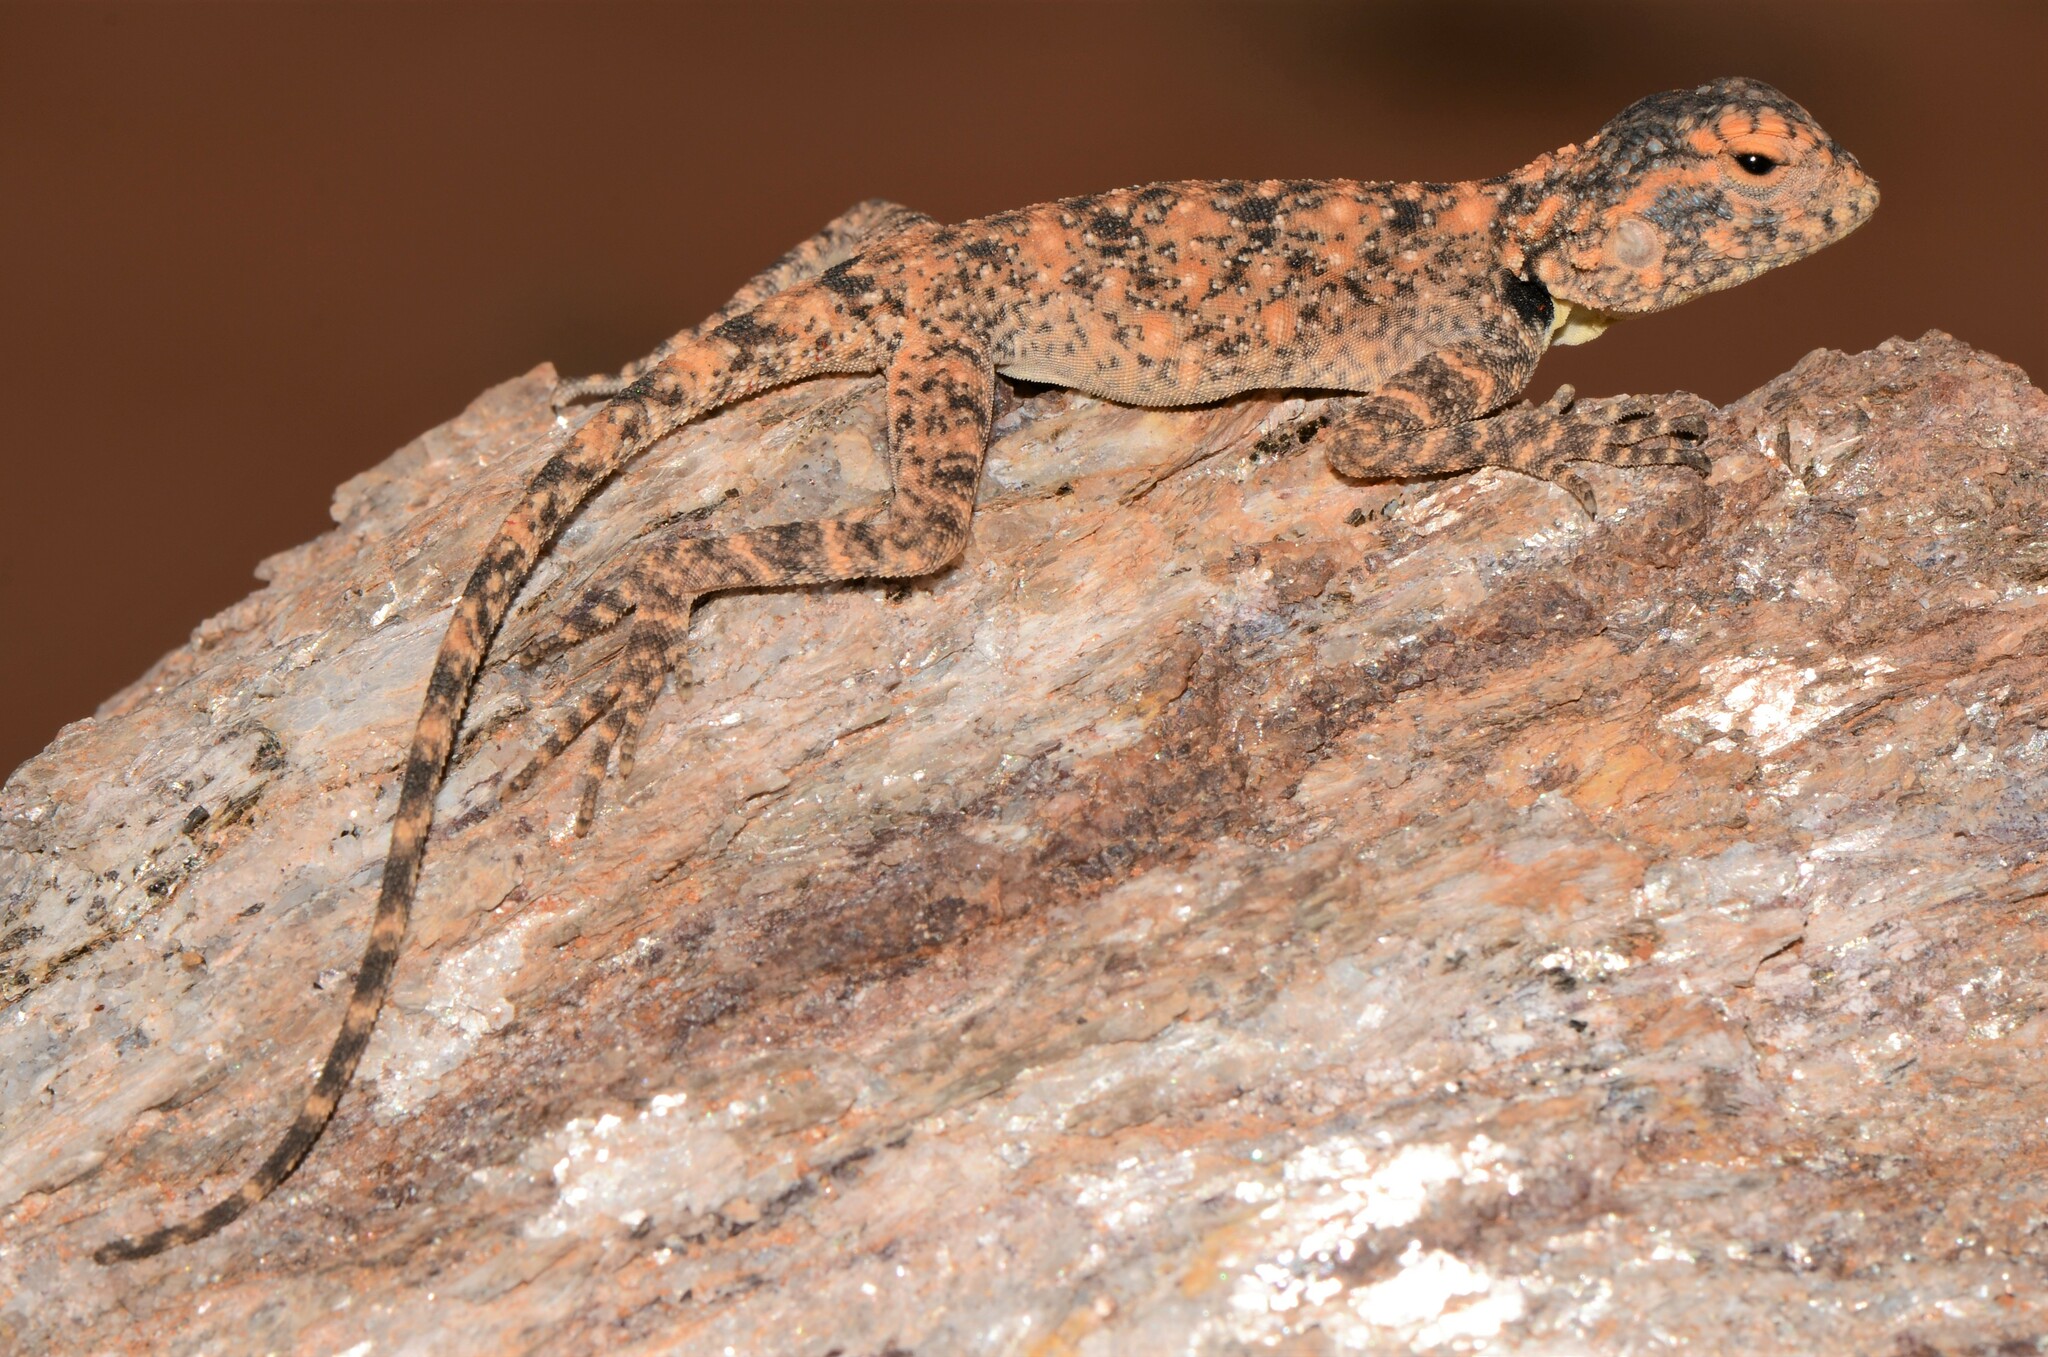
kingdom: Animalia
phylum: Chordata
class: Squamata
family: Agamidae
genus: Agama
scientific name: Agama atra
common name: Southern african rock agama
